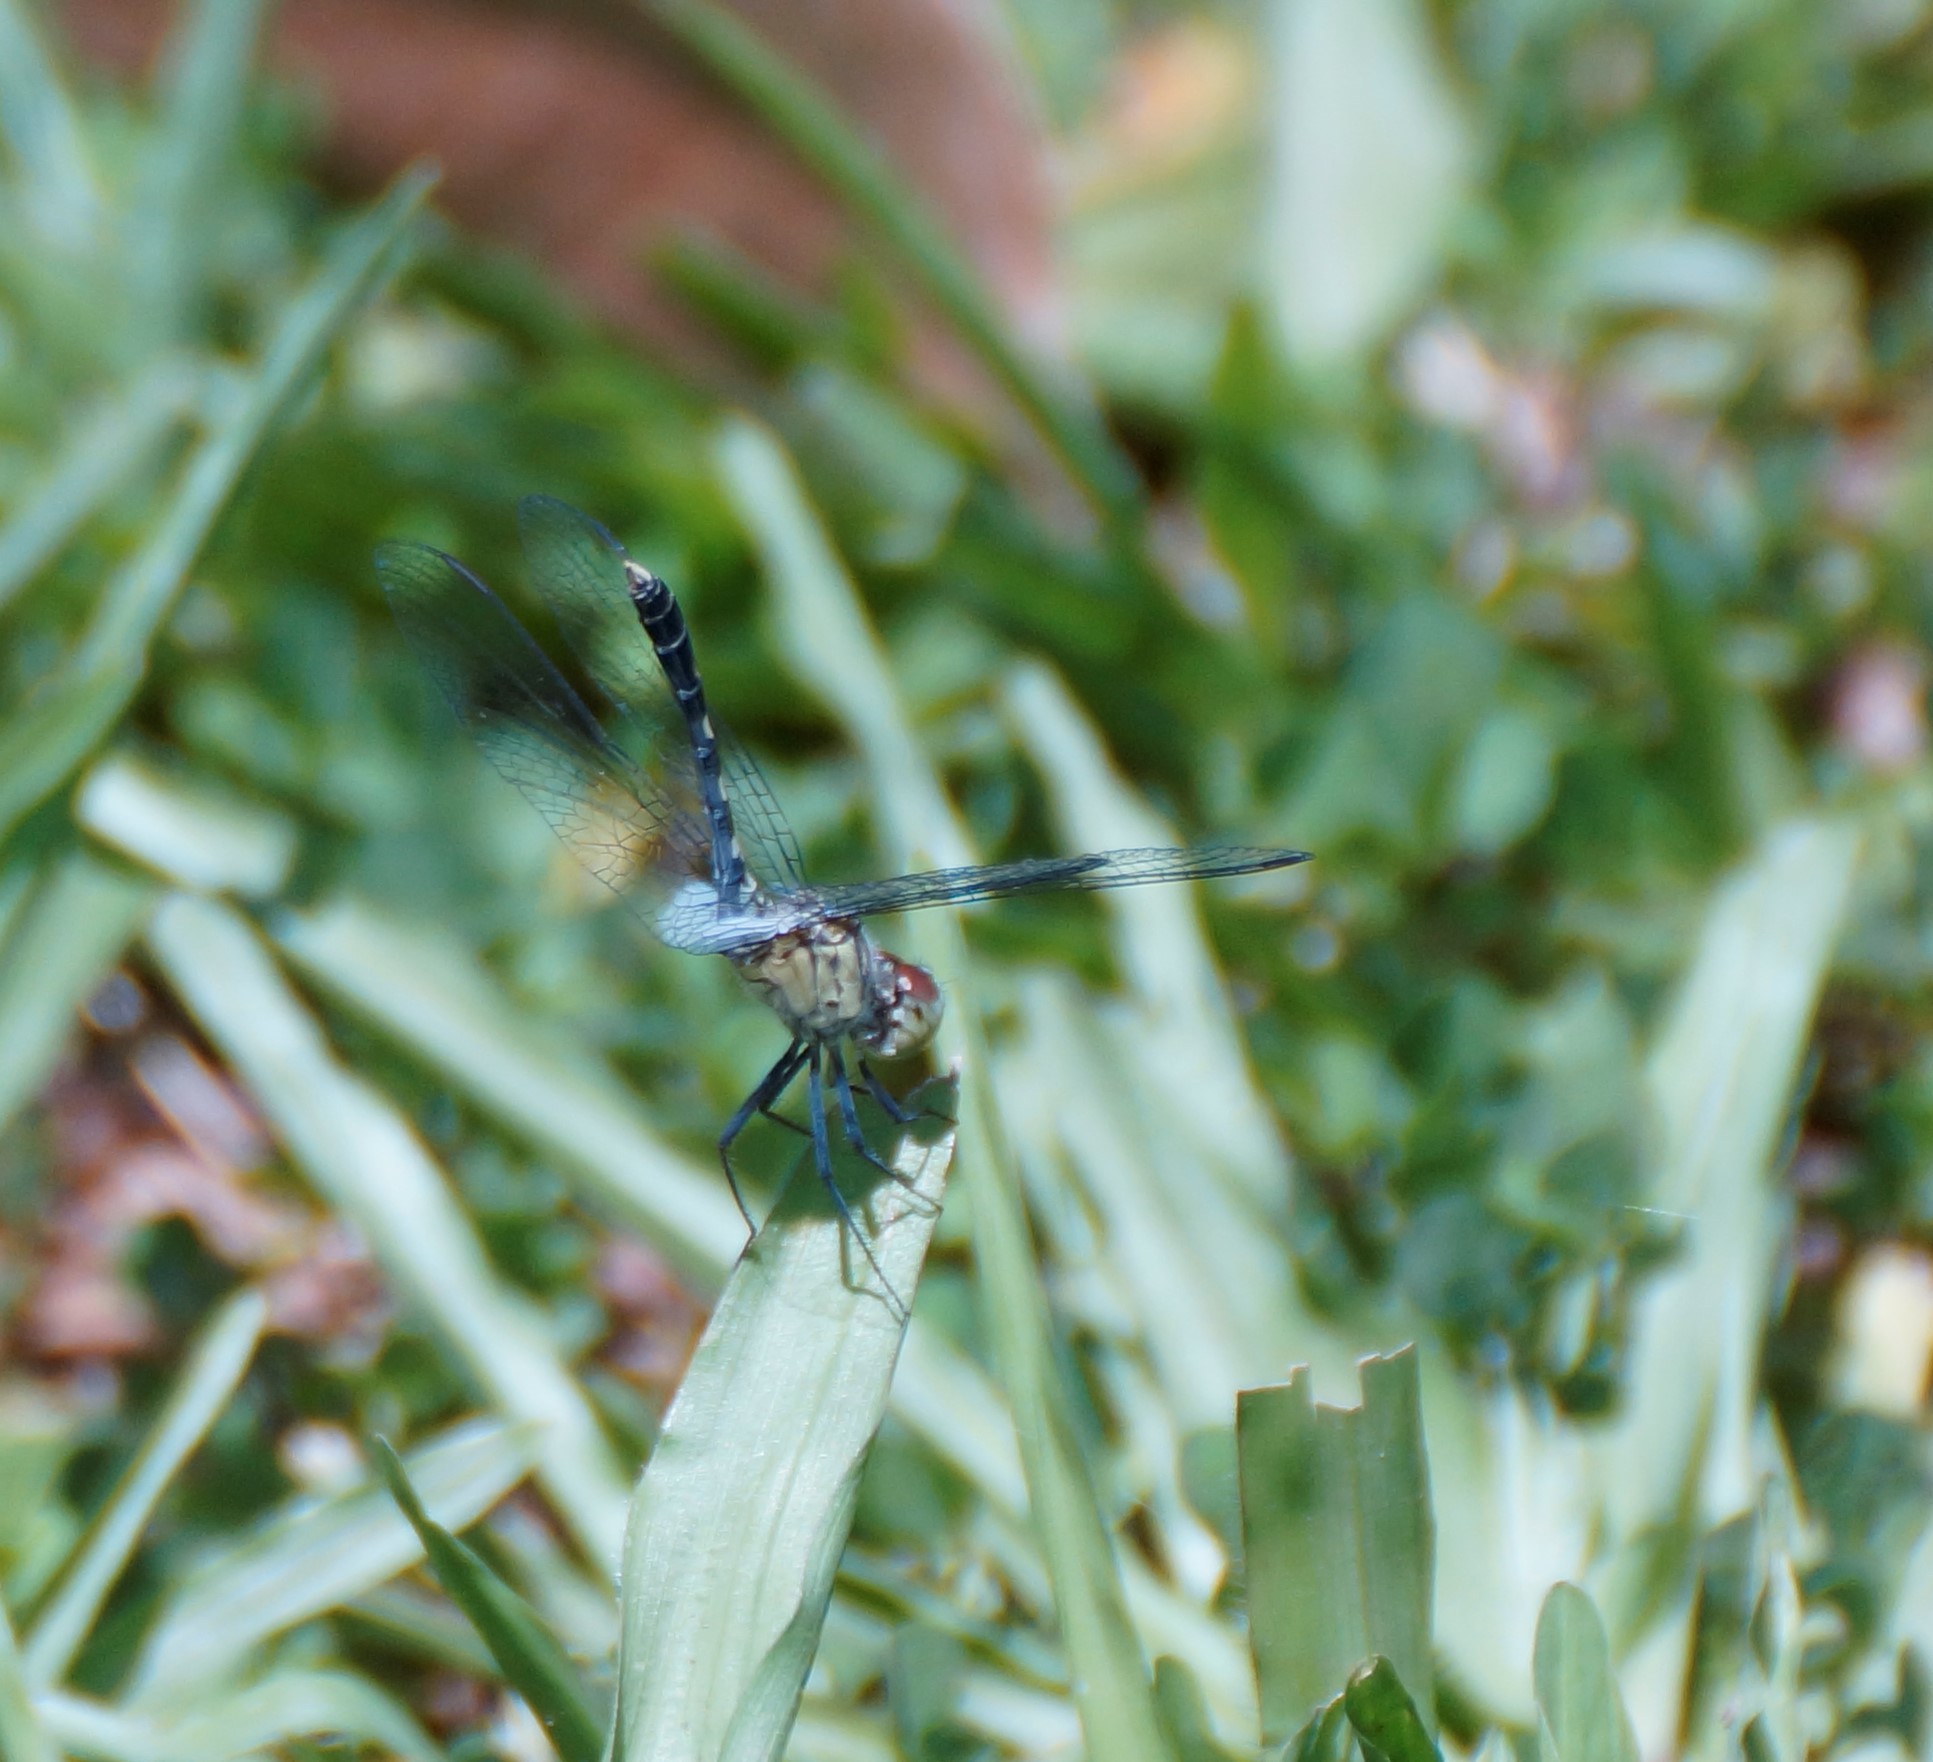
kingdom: Animalia
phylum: Arthropoda
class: Insecta
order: Odonata
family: Libellulidae
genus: Diplacodes
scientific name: Diplacodes trivialis
